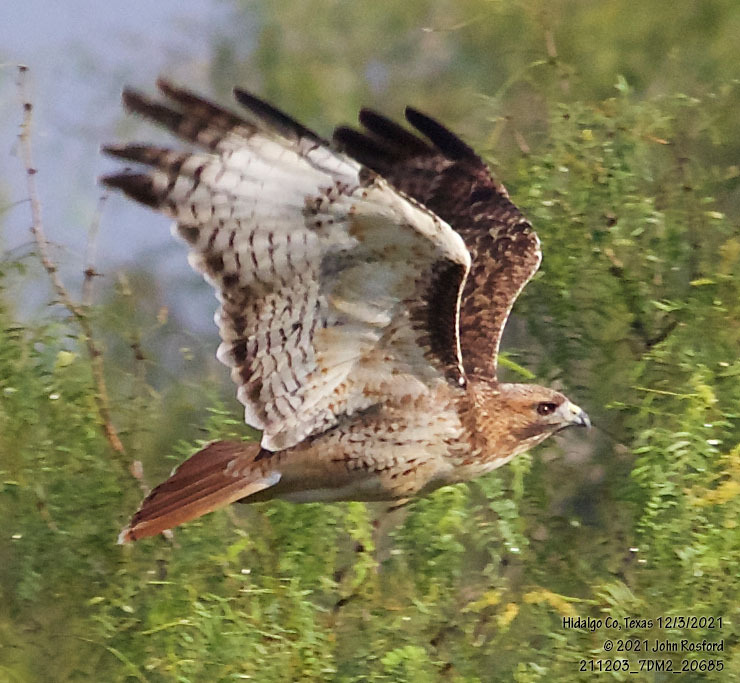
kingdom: Animalia
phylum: Chordata
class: Aves
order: Accipitriformes
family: Accipitridae
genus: Buteo
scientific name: Buteo jamaicensis
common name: Red-tailed hawk
